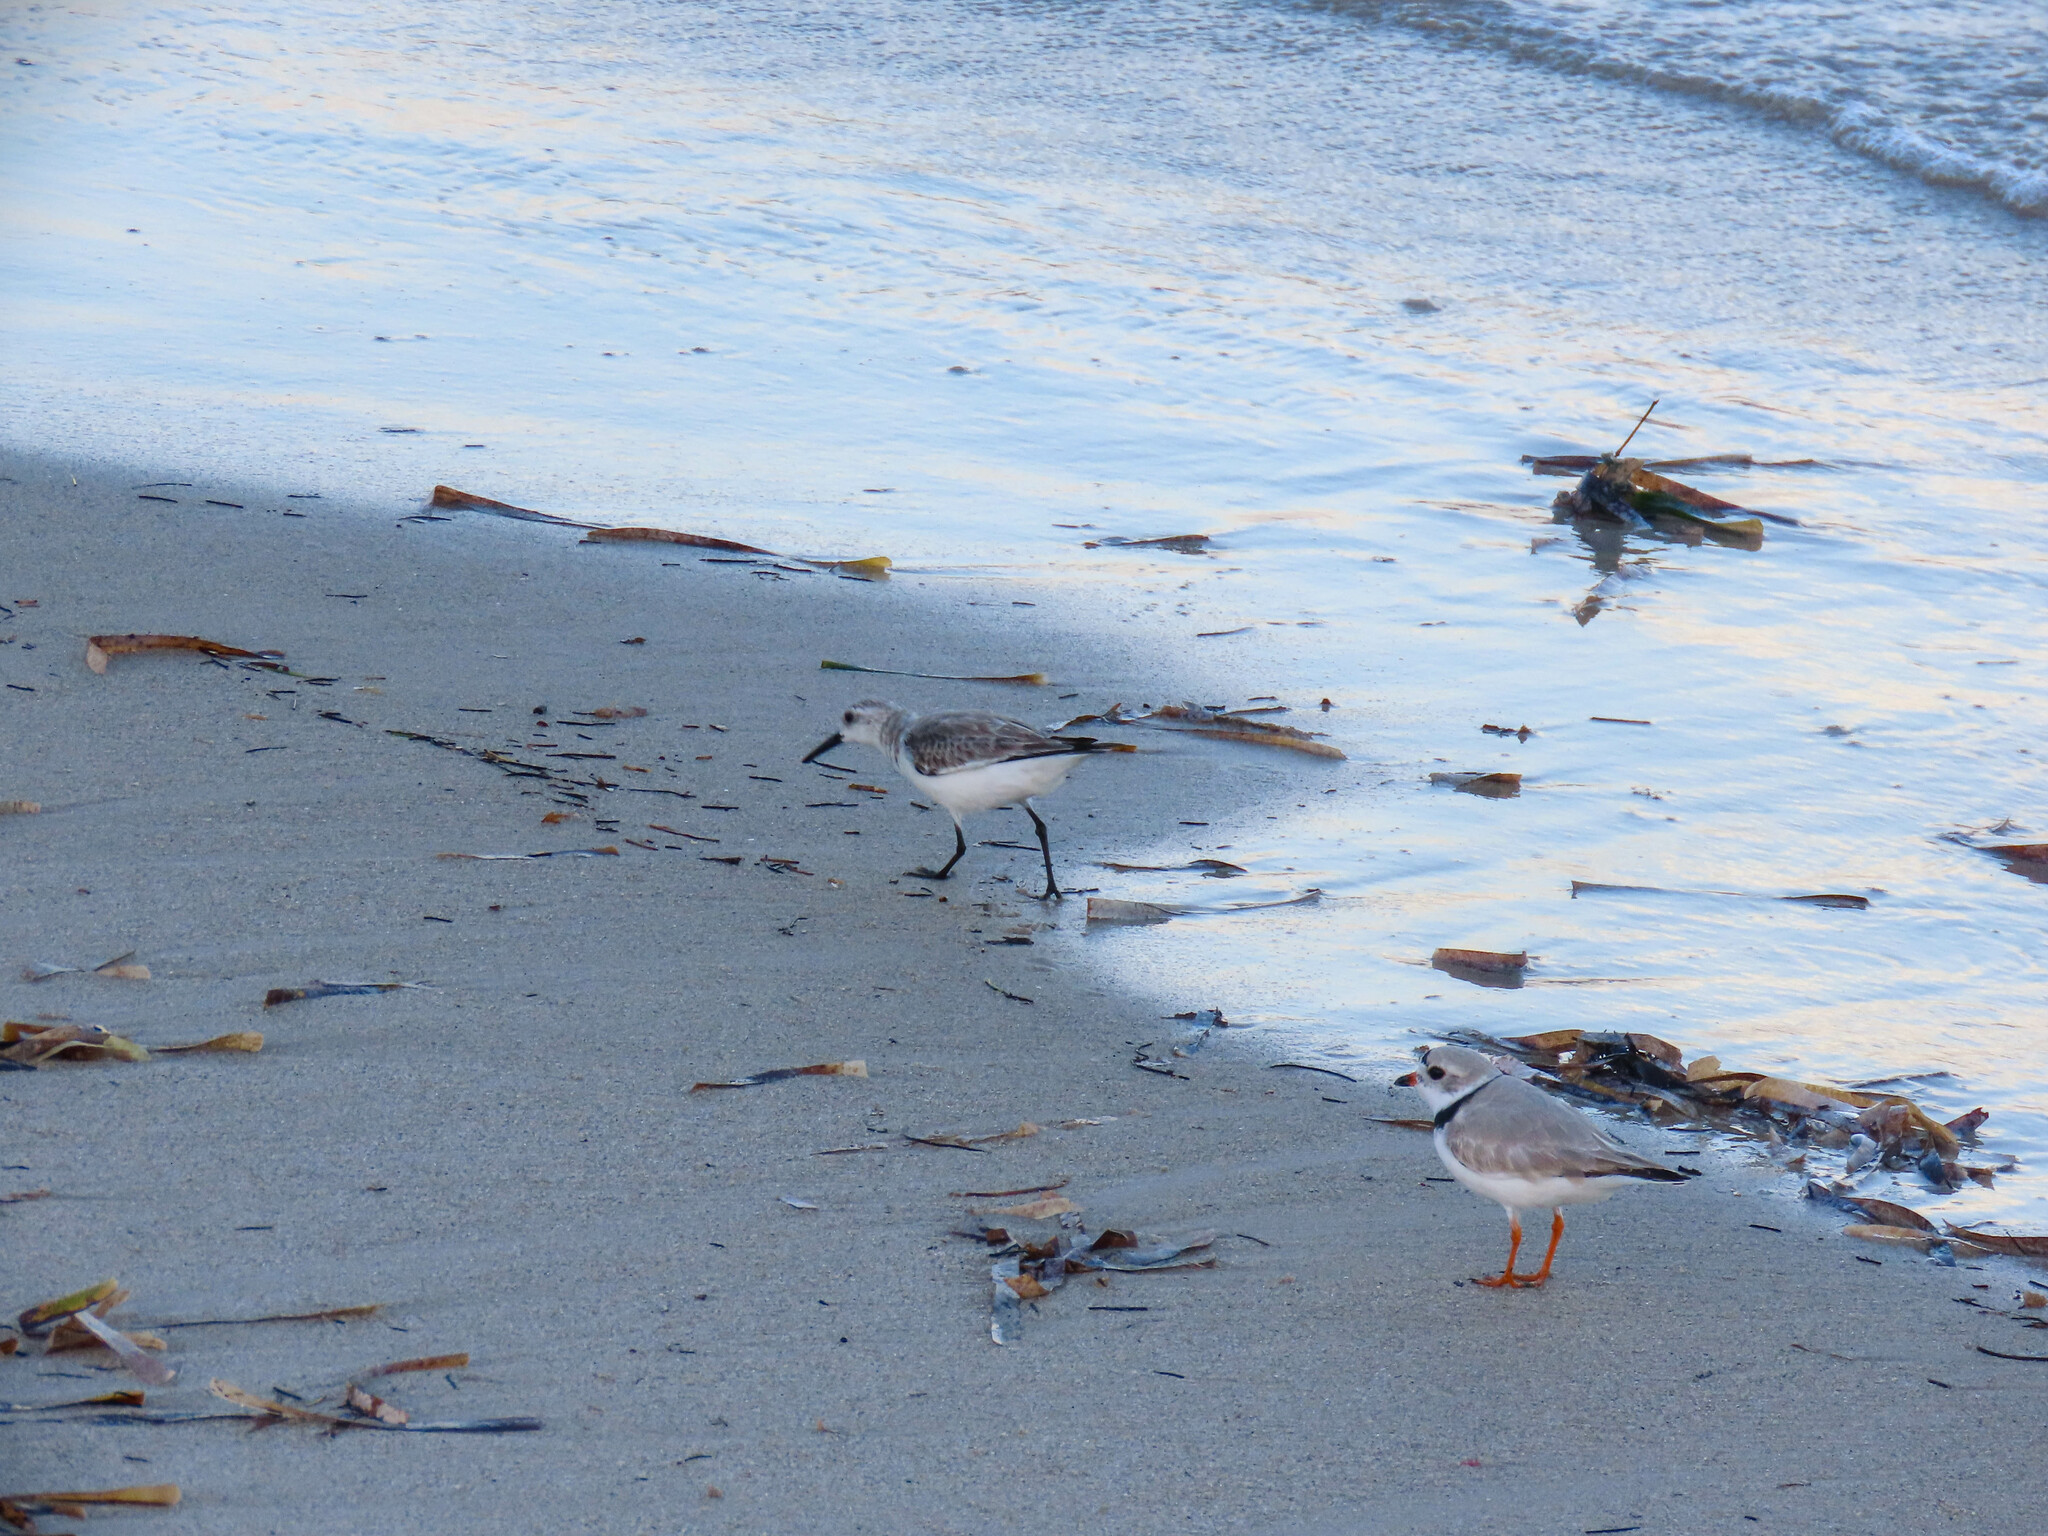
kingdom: Animalia
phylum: Chordata
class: Aves
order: Charadriiformes
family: Scolopacidae
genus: Calidris
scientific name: Calidris alba
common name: Sanderling
